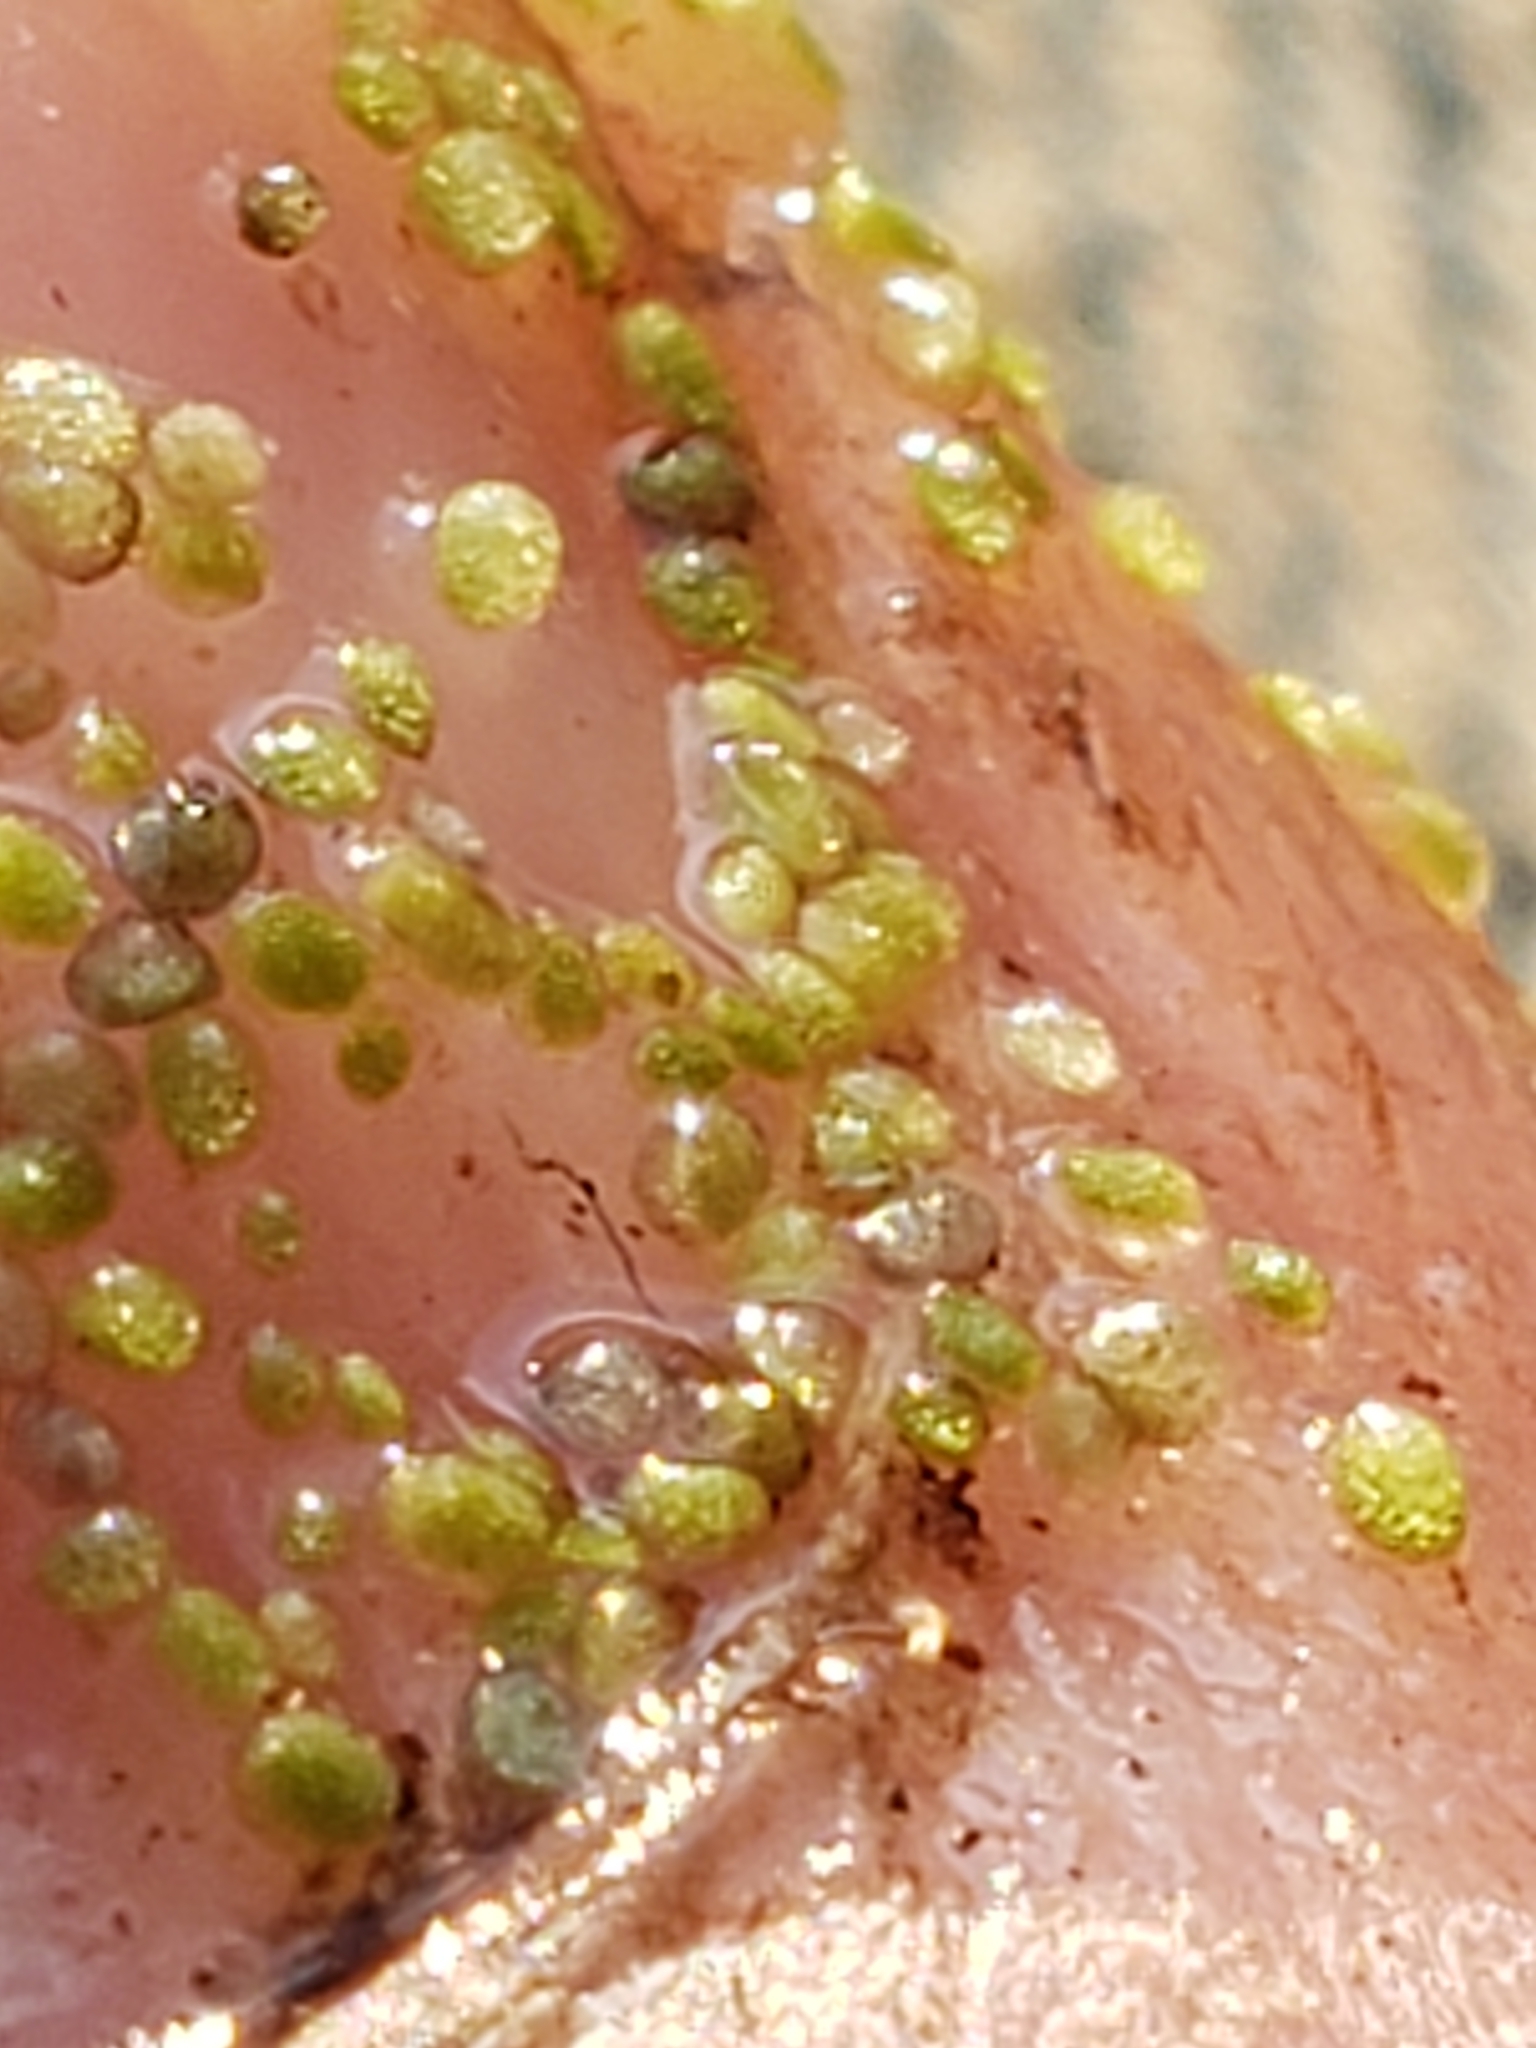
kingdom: Plantae
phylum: Tracheophyta
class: Liliopsida
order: Alismatales
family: Araceae
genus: Wolffia
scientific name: Wolffia columbiana
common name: Columbia watermeal
